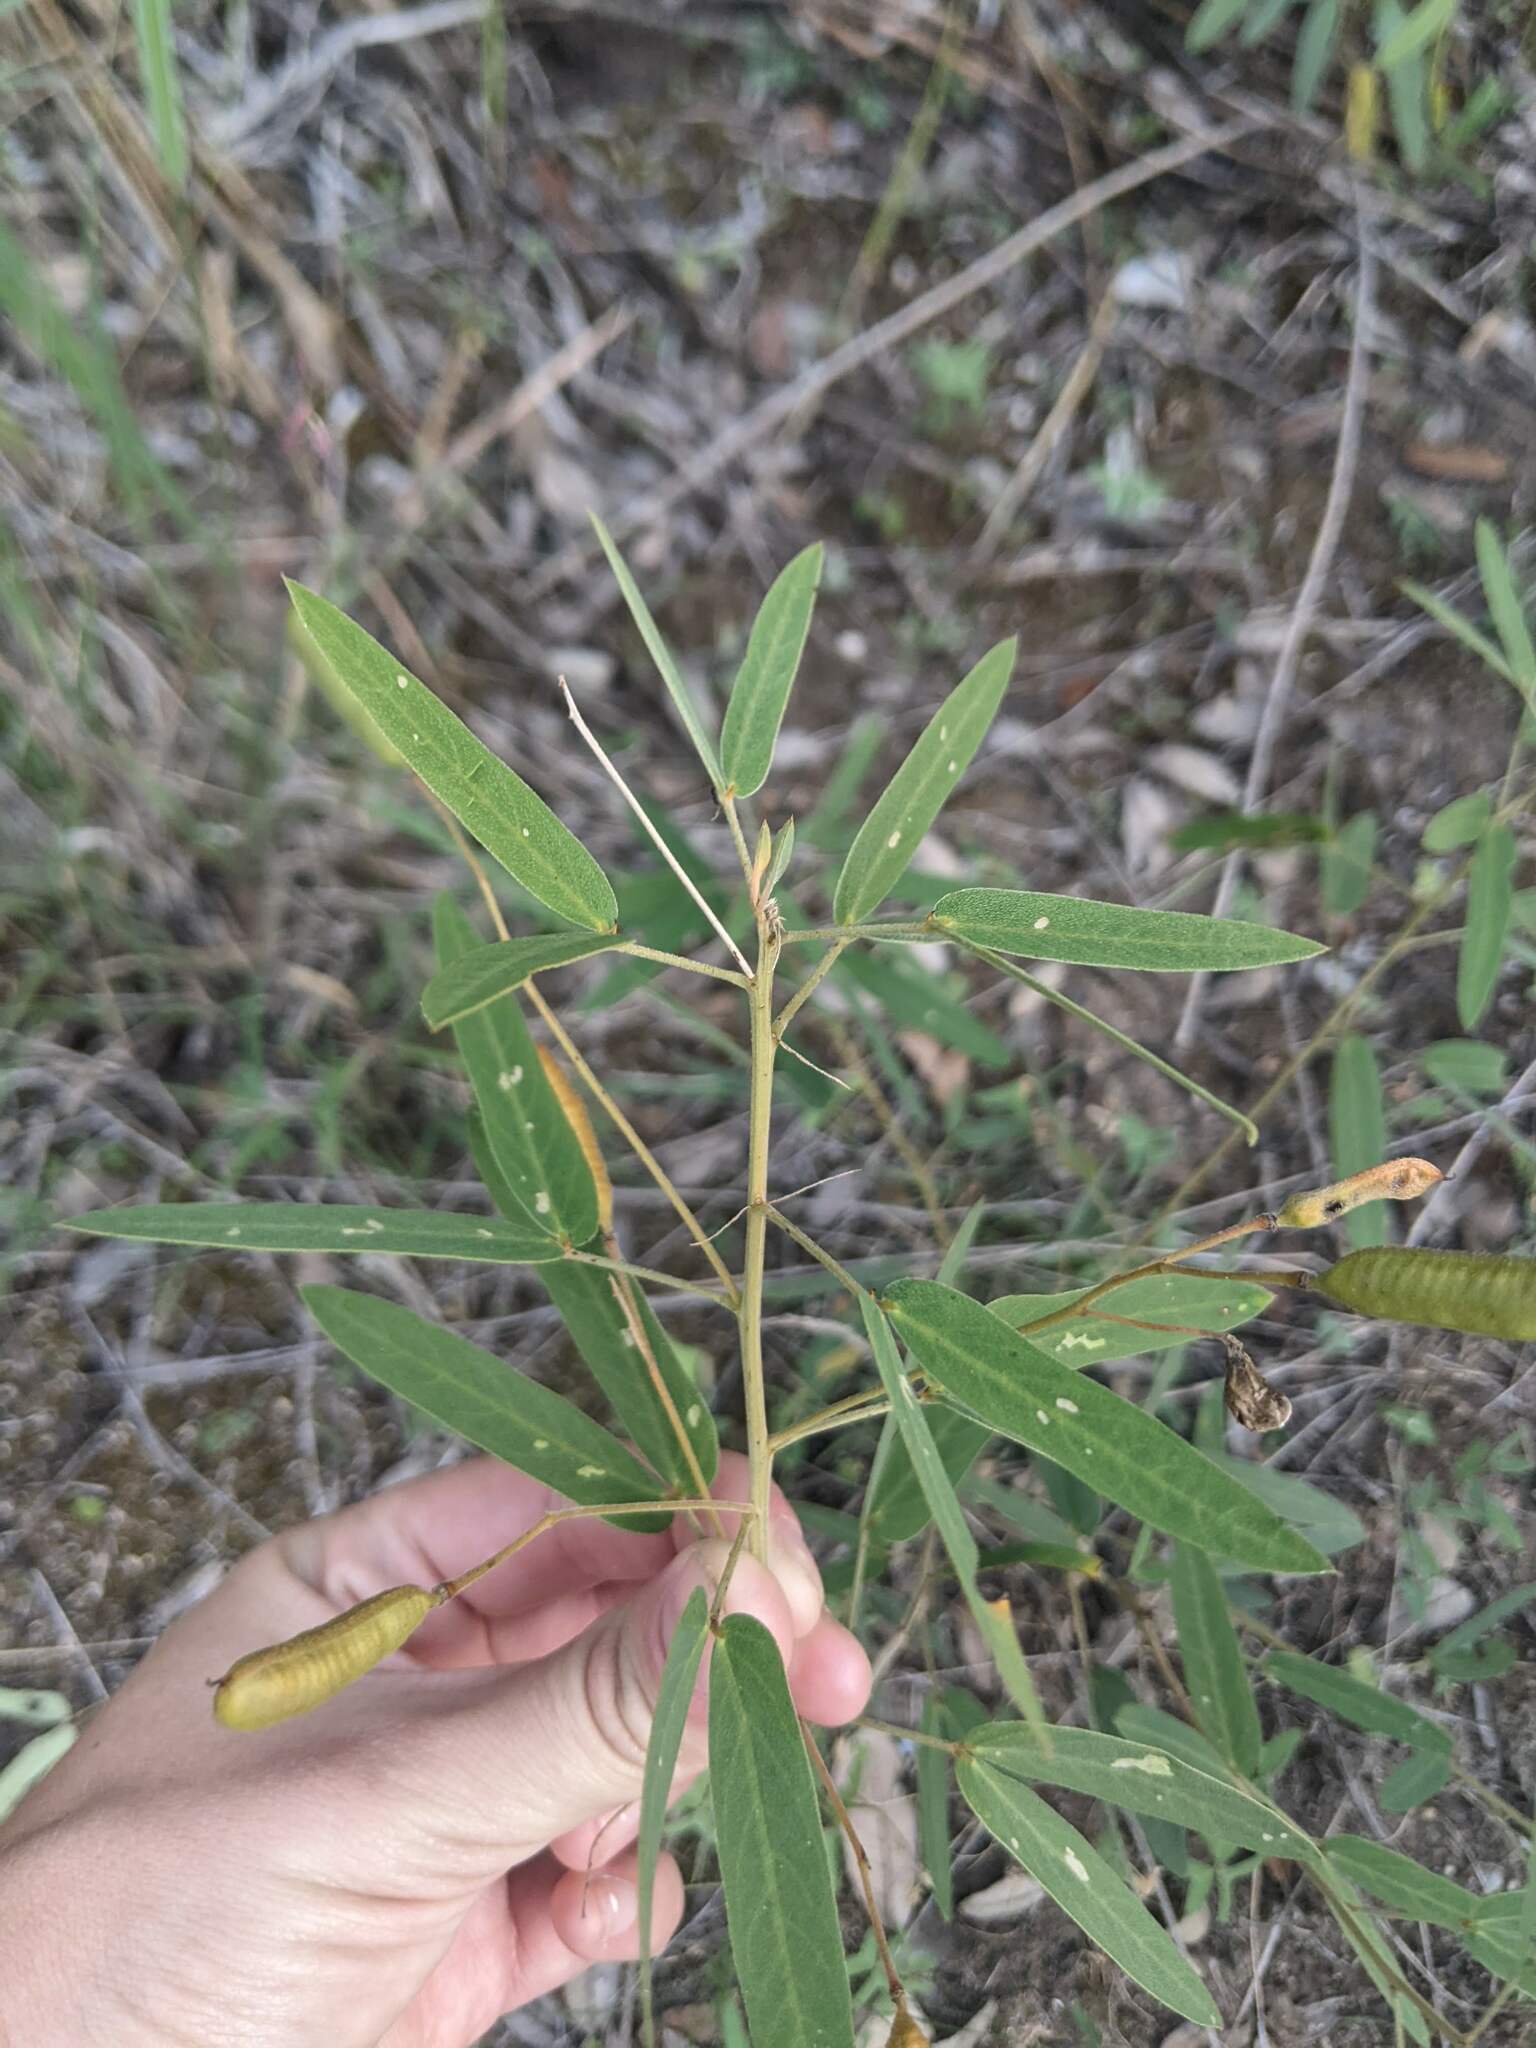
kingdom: Plantae
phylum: Tracheophyta
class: Magnoliopsida
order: Fabales
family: Fabaceae
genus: Senna
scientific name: Senna roemeriana
